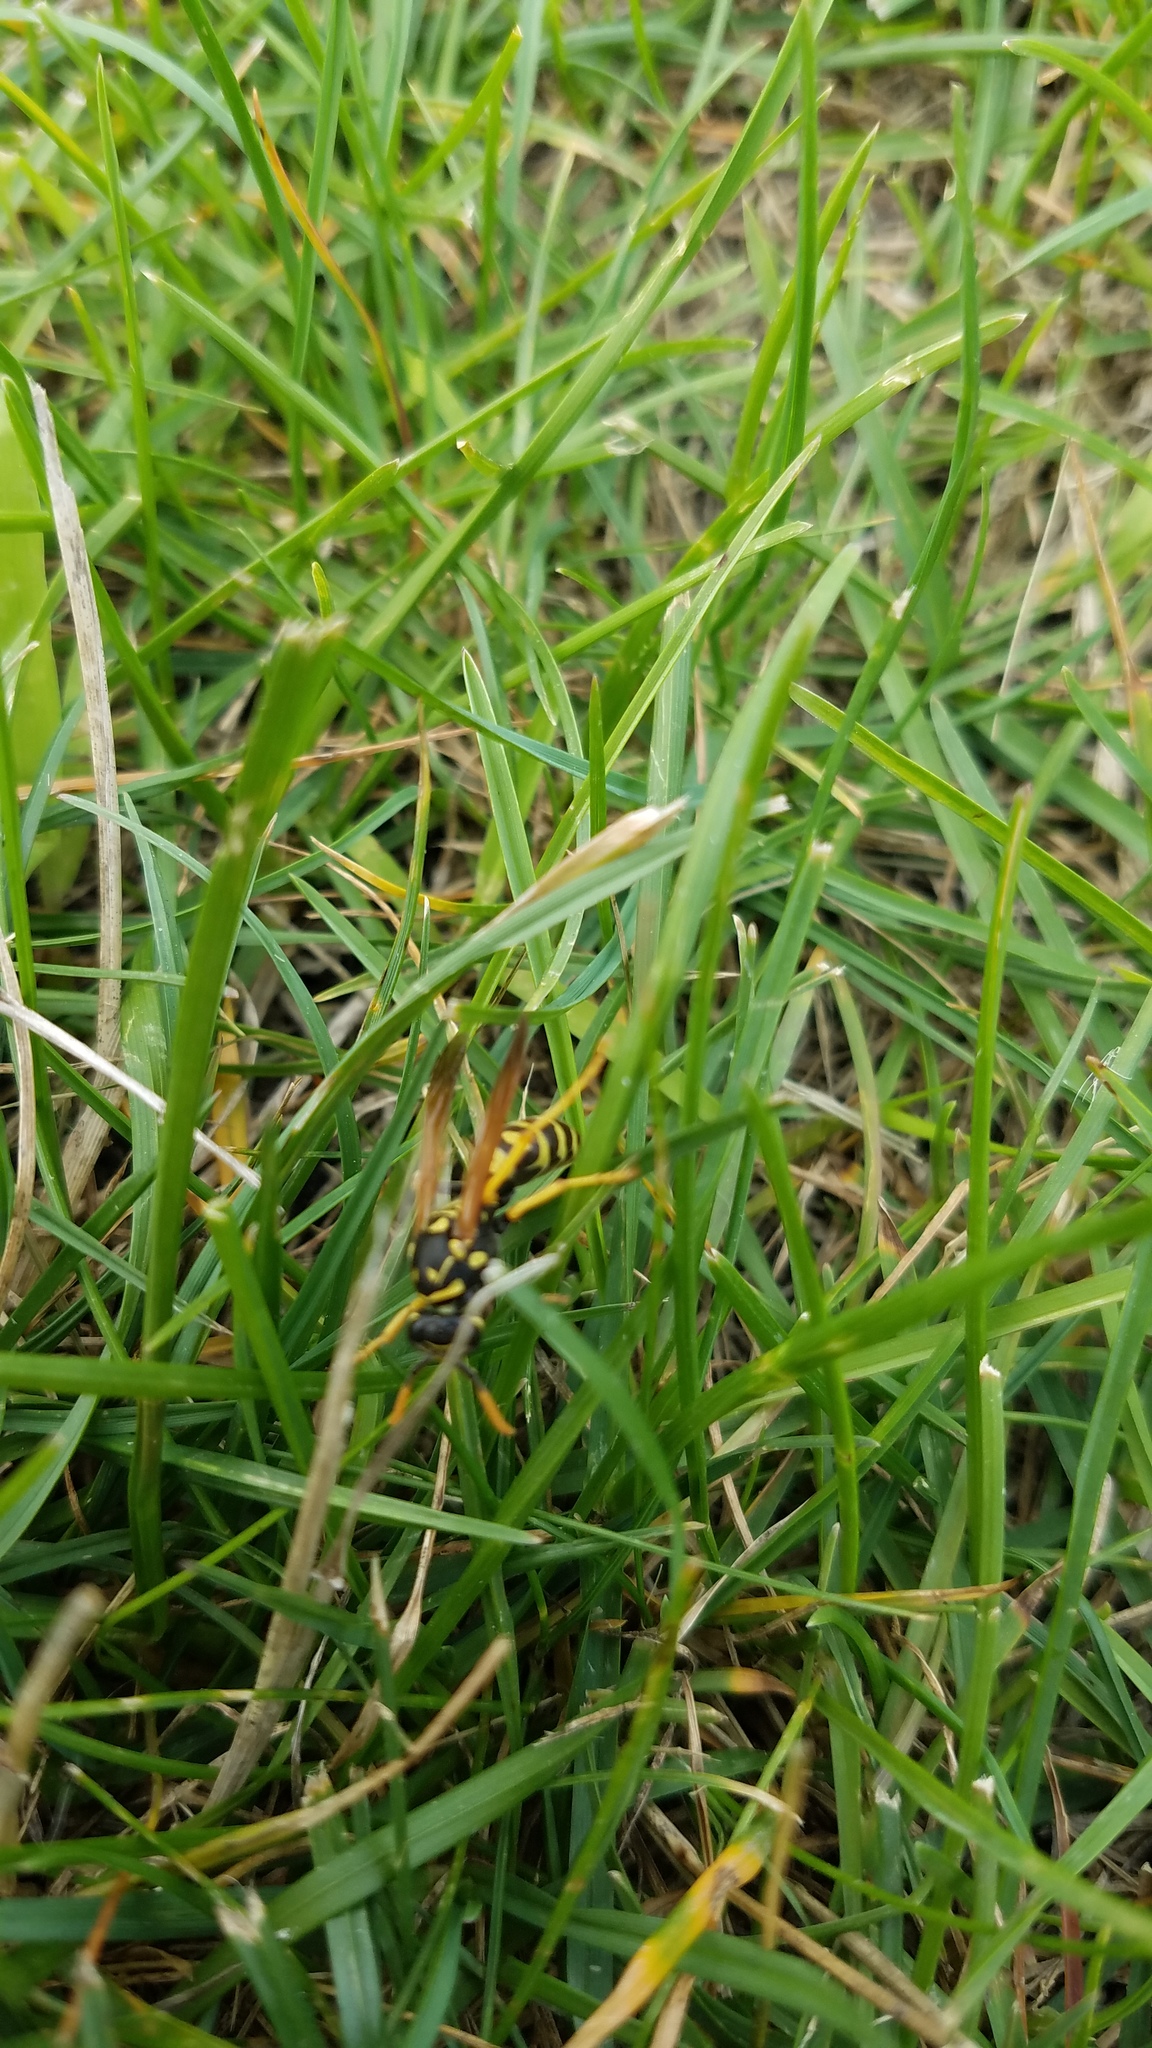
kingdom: Animalia
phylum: Arthropoda
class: Insecta
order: Hymenoptera
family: Eumenidae
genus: Polistes
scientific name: Polistes dominula
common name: Paper wasp
